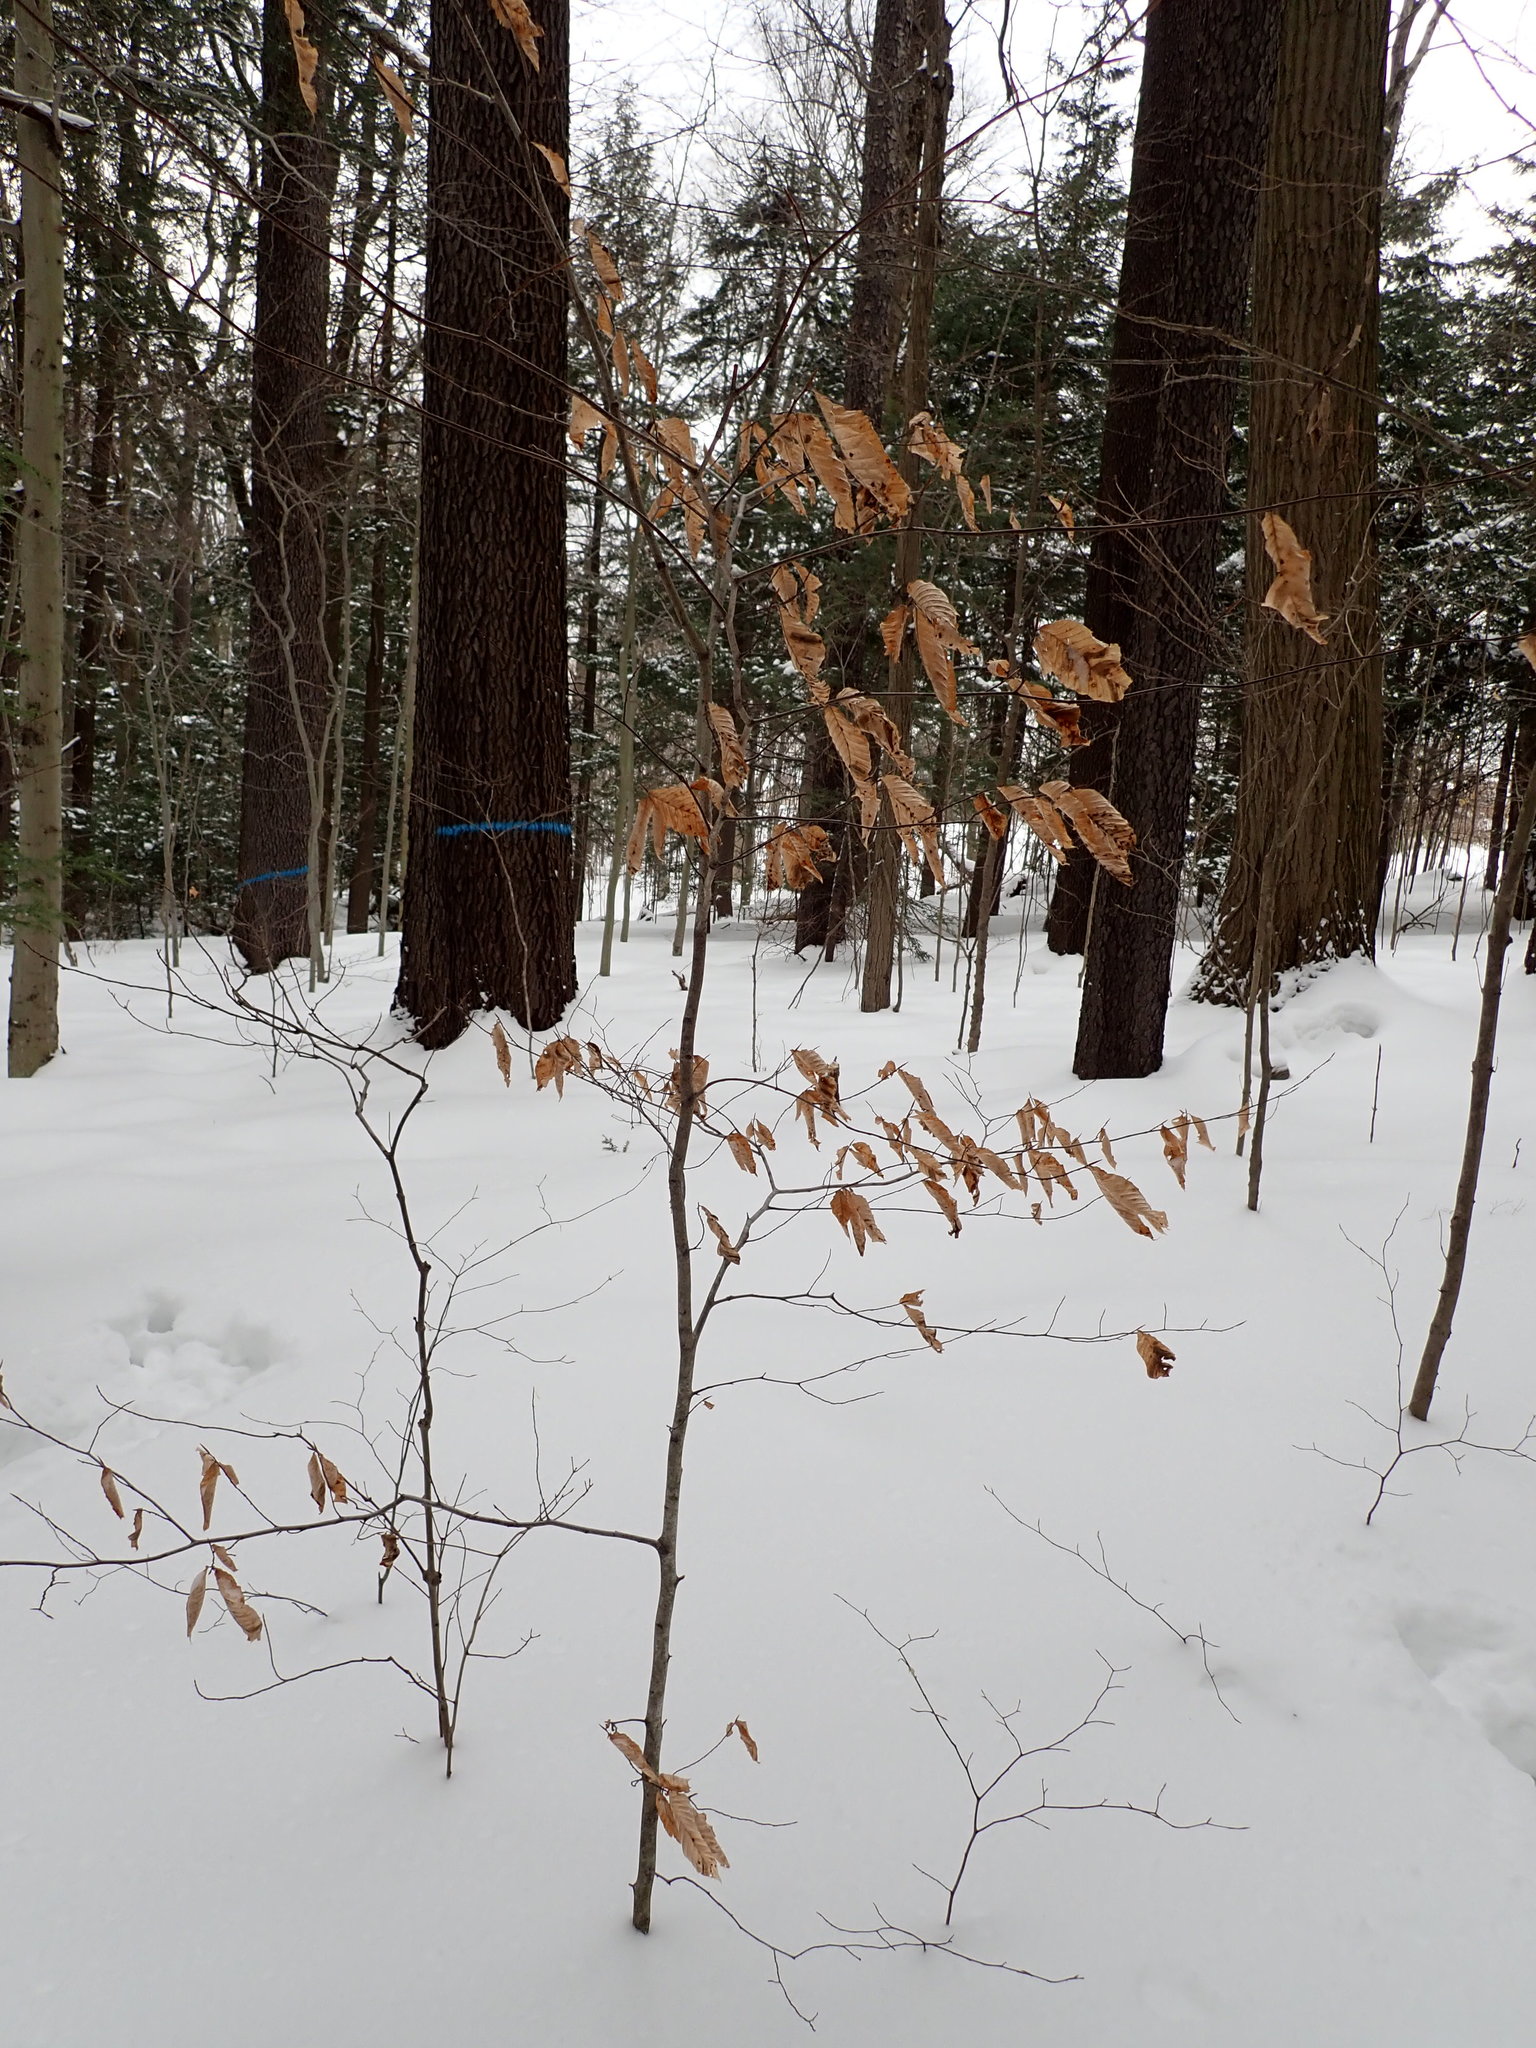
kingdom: Plantae
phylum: Tracheophyta
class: Magnoliopsida
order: Fagales
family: Fagaceae
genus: Fagus
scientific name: Fagus grandifolia
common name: American beech
